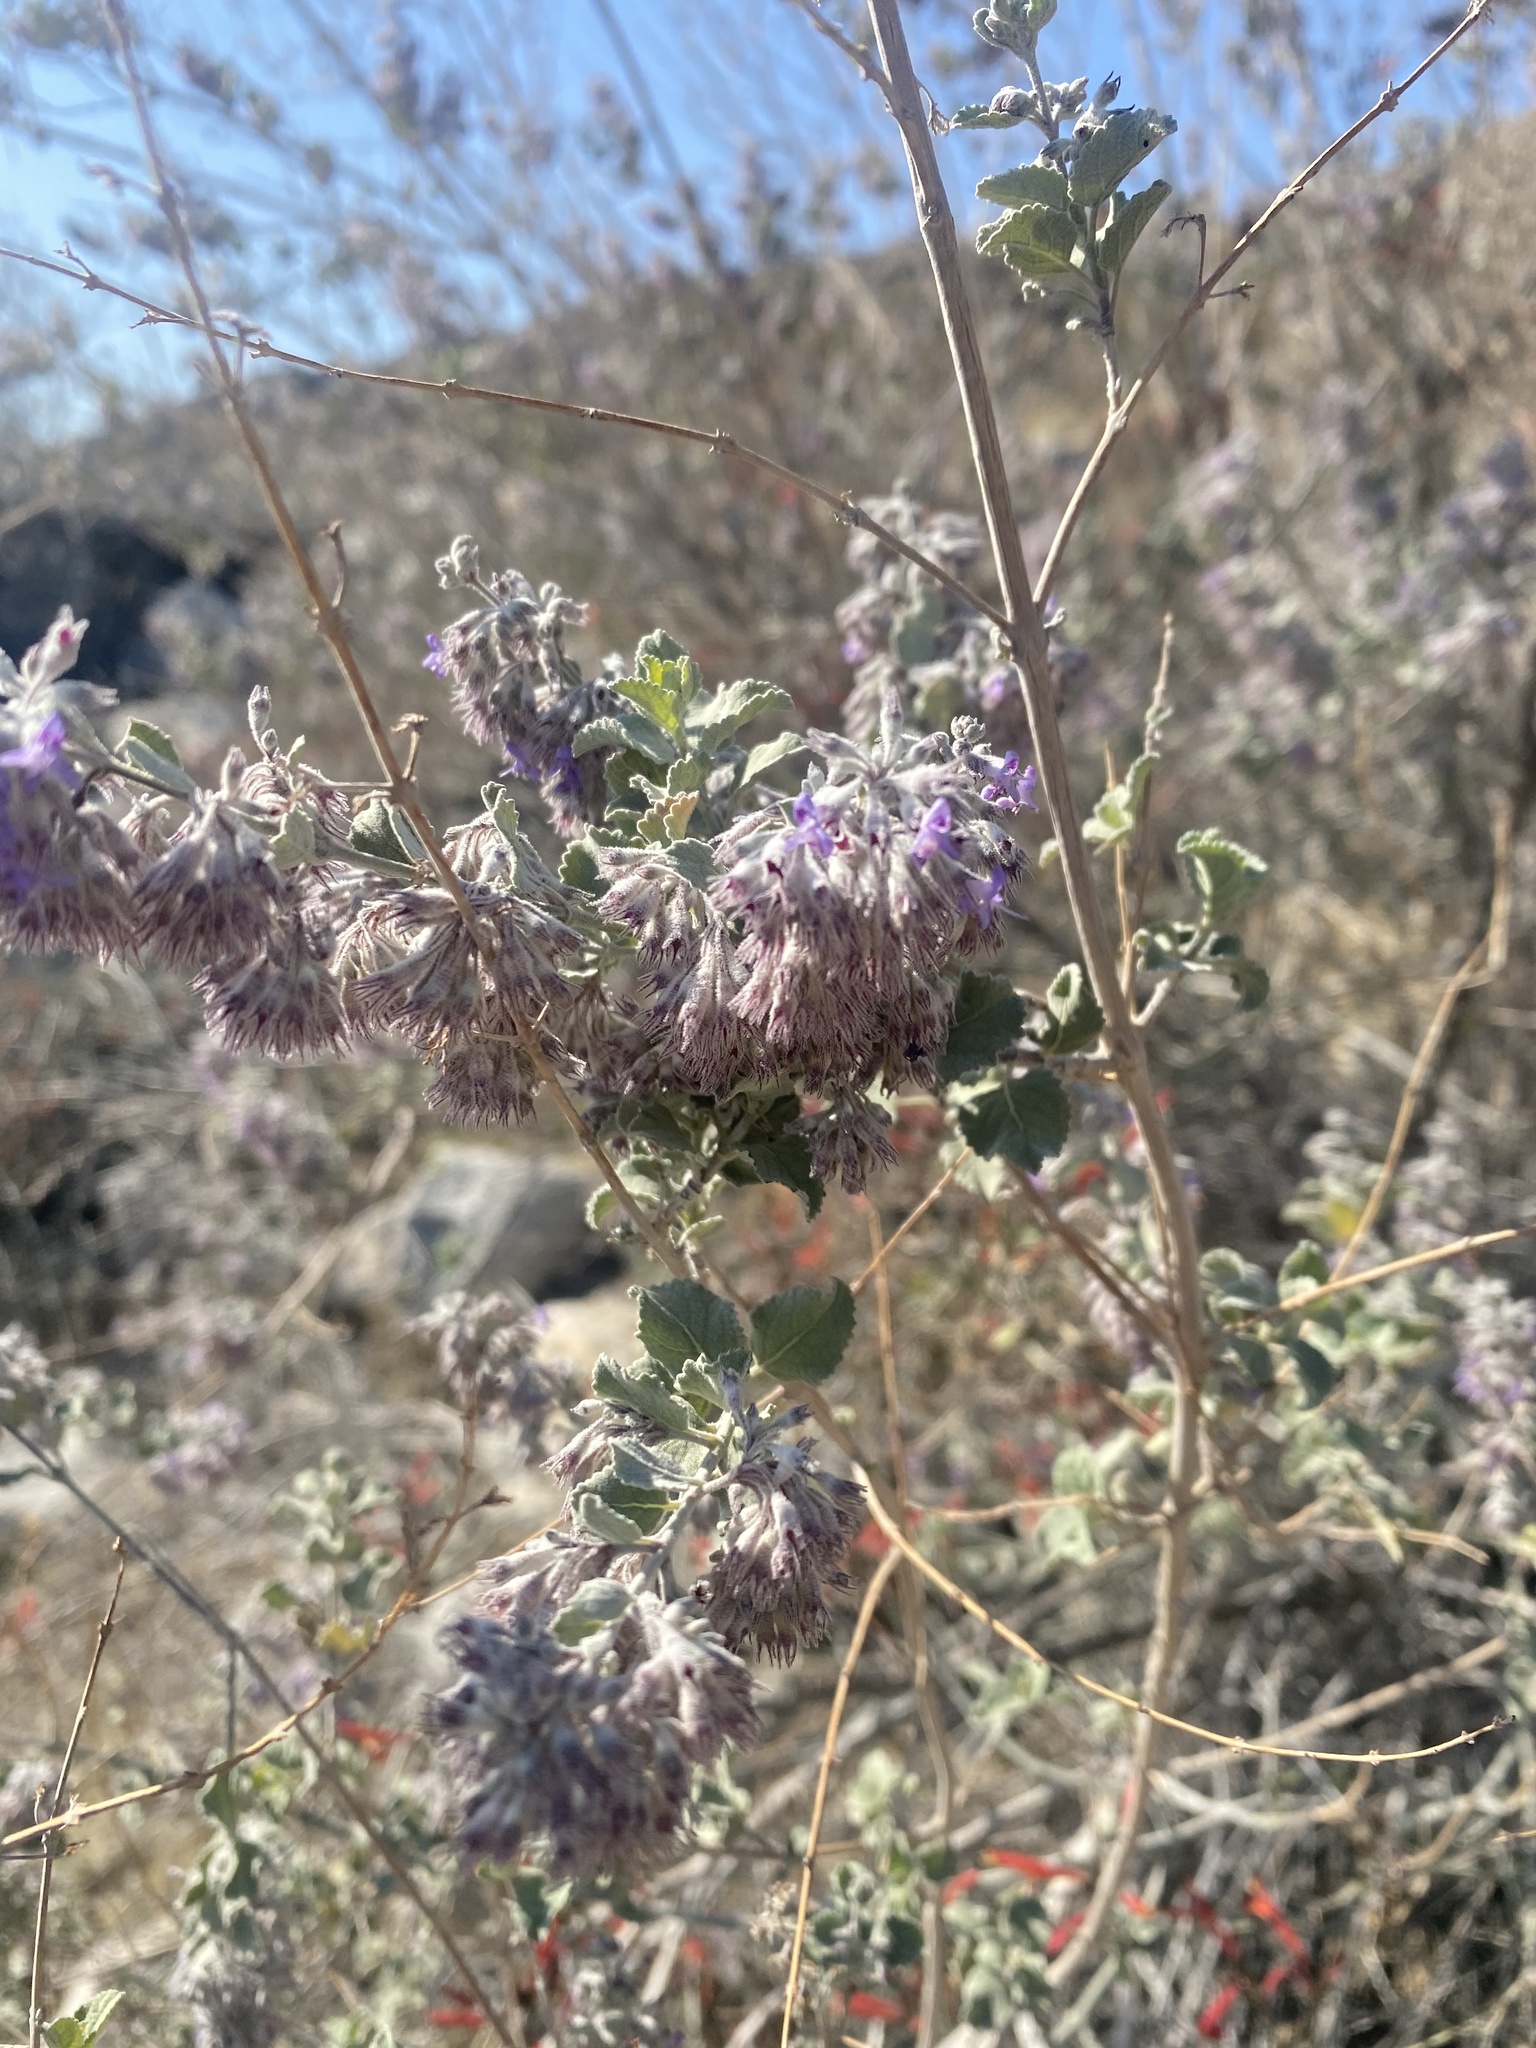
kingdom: Plantae
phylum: Tracheophyta
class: Magnoliopsida
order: Lamiales
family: Lamiaceae
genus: Condea
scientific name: Condea emoryi
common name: Chia
